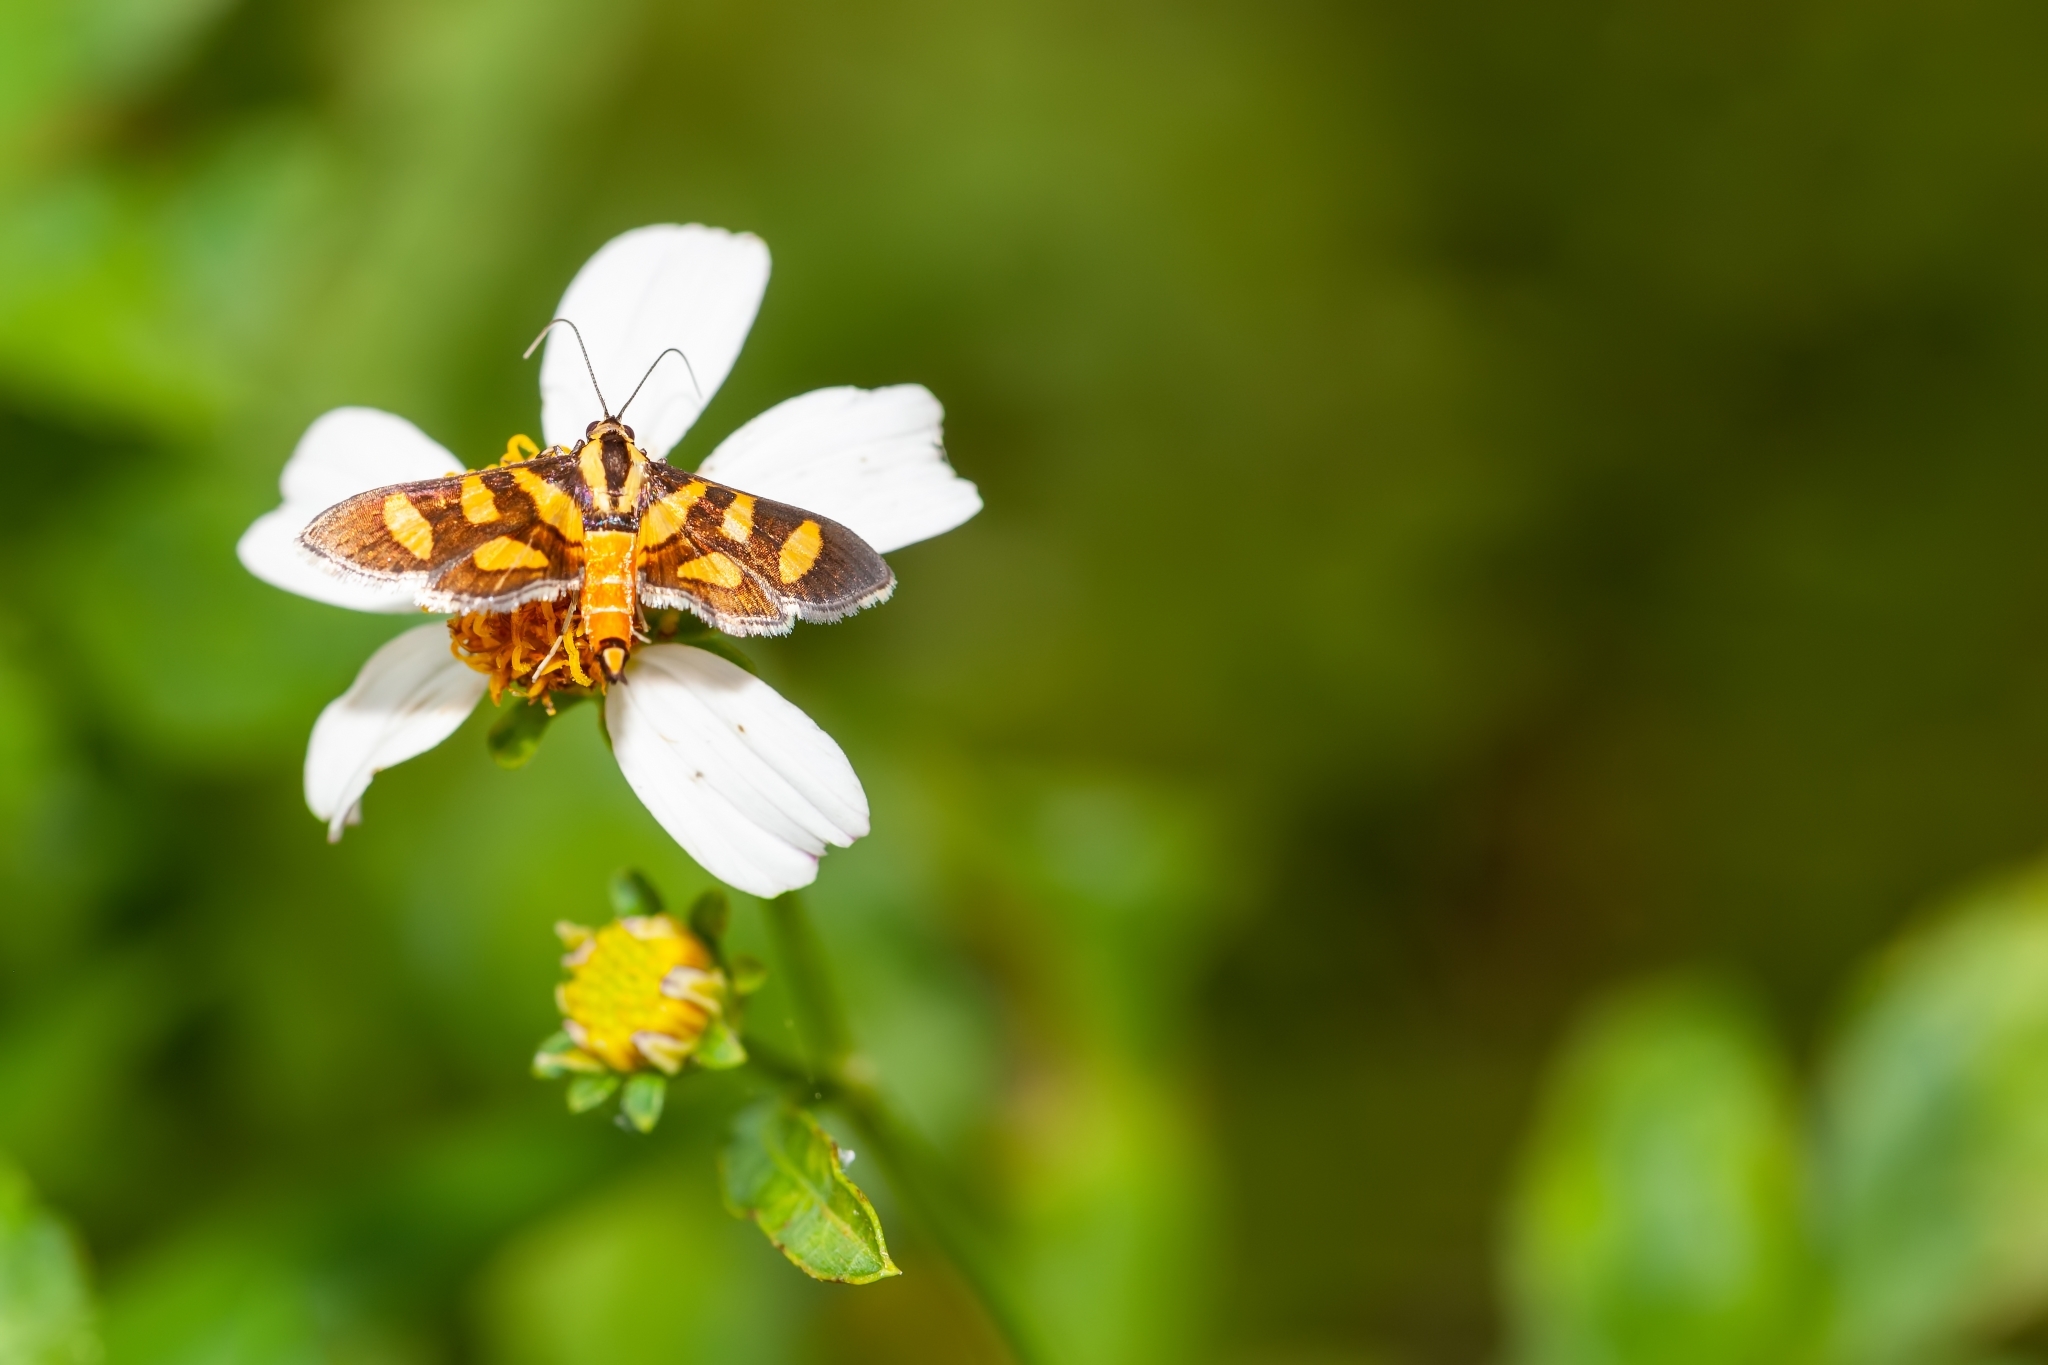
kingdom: Animalia
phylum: Arthropoda
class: Insecta
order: Lepidoptera
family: Crambidae
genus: Syngamia
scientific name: Syngamia florella
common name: Orange-spotted flower moth
